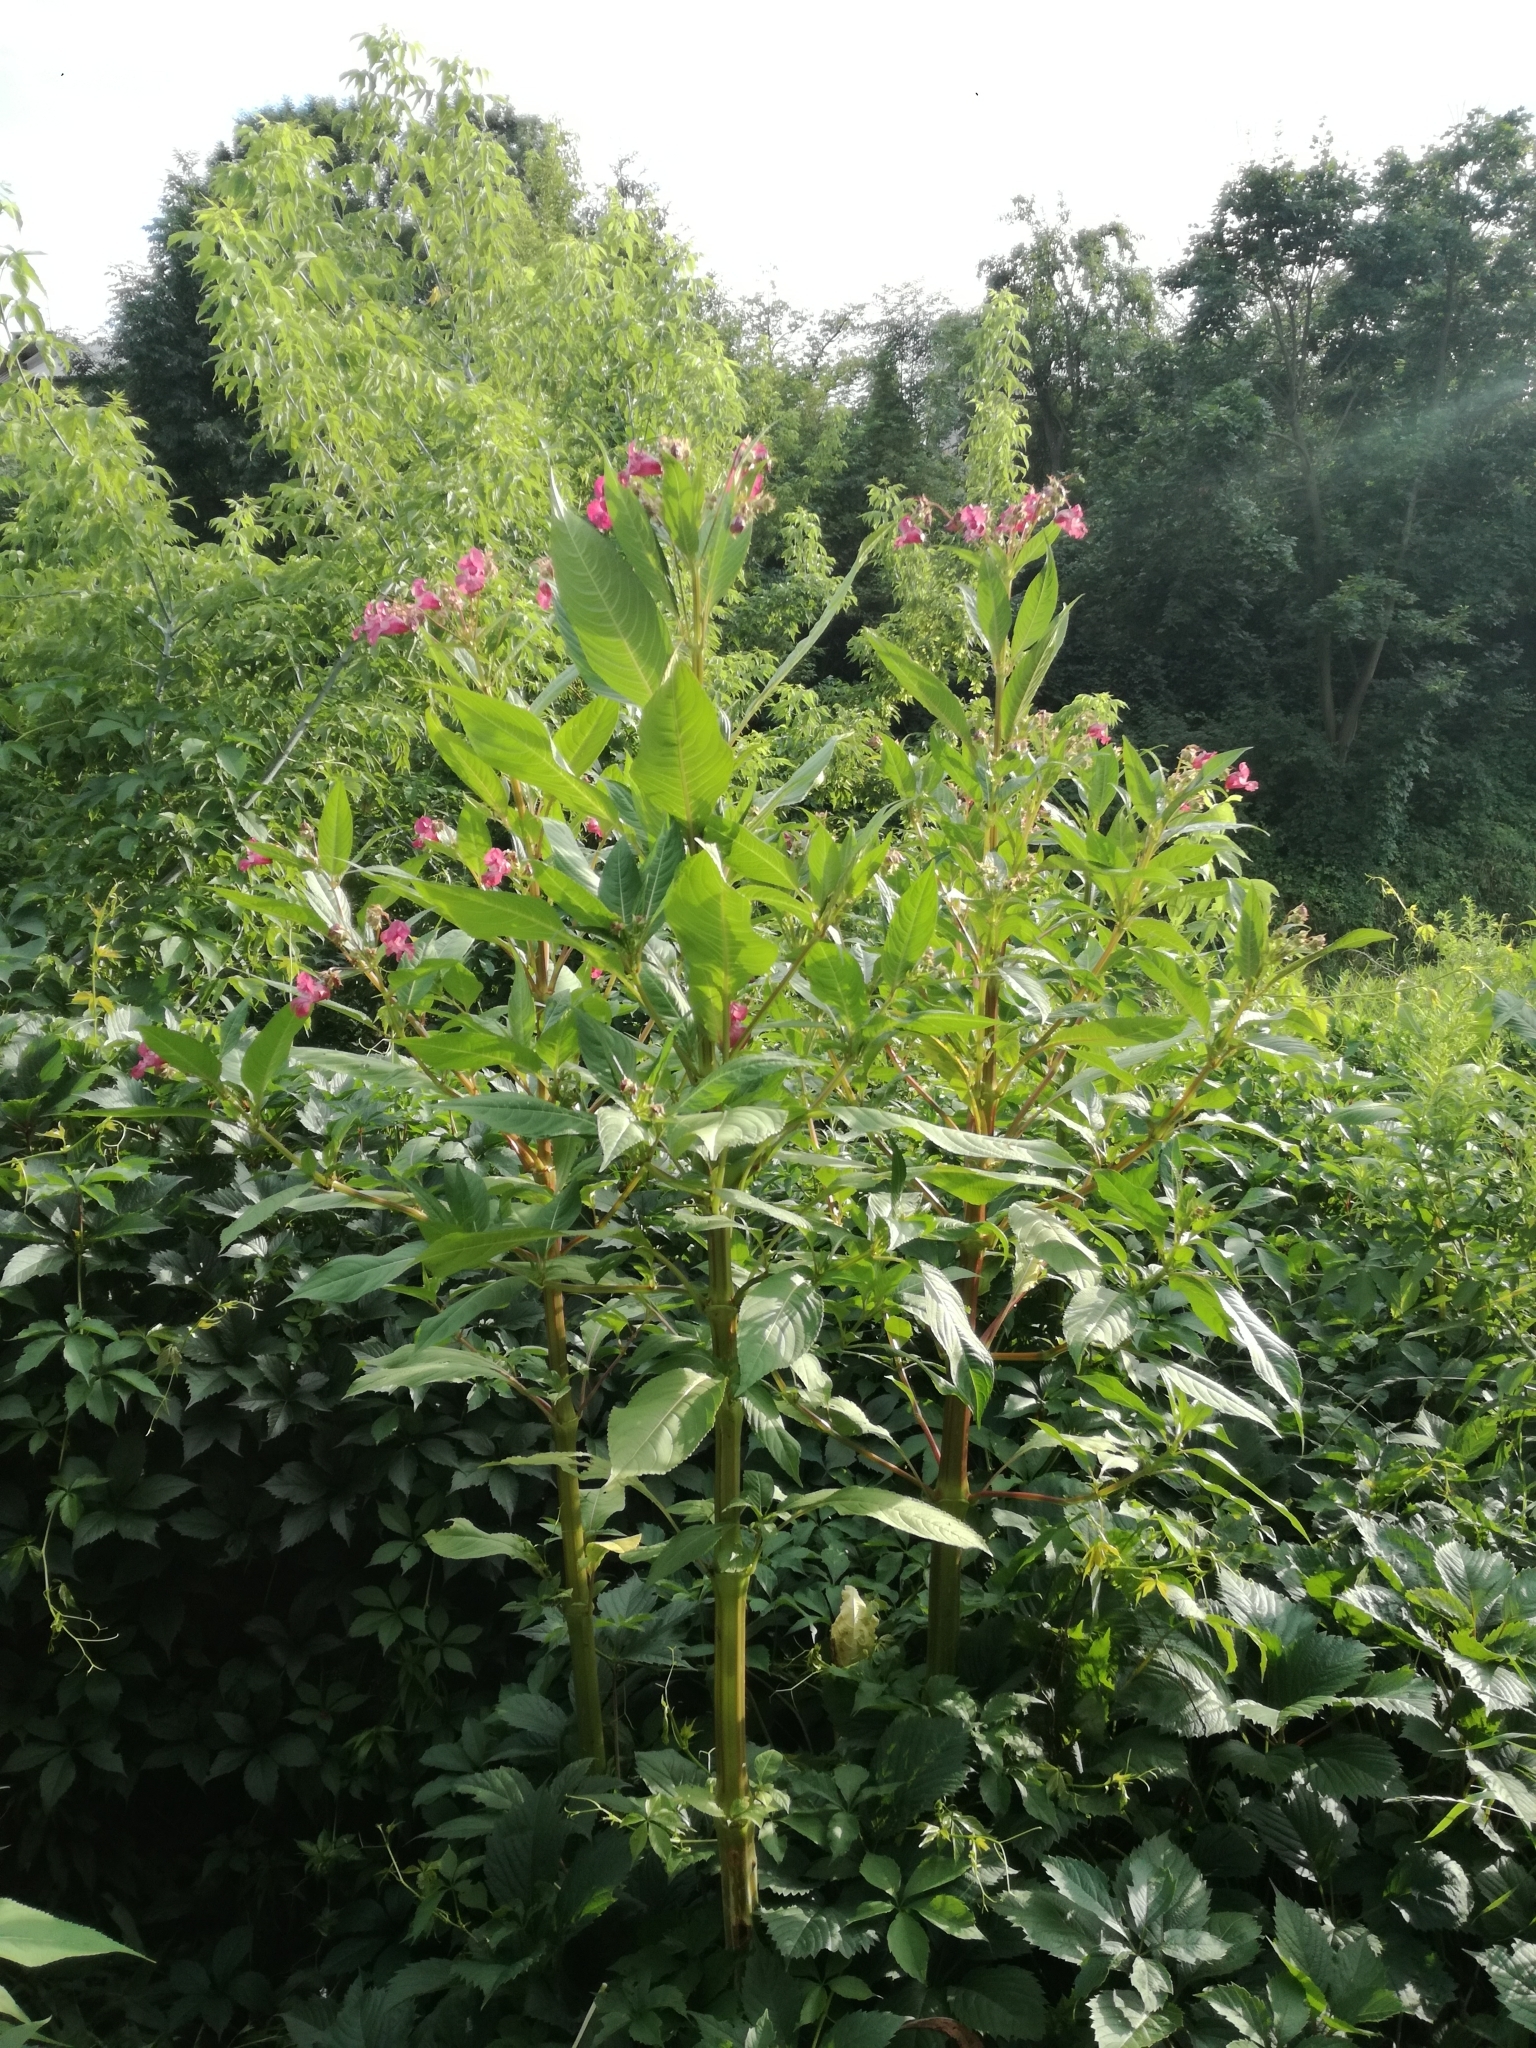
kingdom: Plantae
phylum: Tracheophyta
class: Magnoliopsida
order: Ericales
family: Balsaminaceae
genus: Impatiens
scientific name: Impatiens glandulifera
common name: Himalayan balsam
